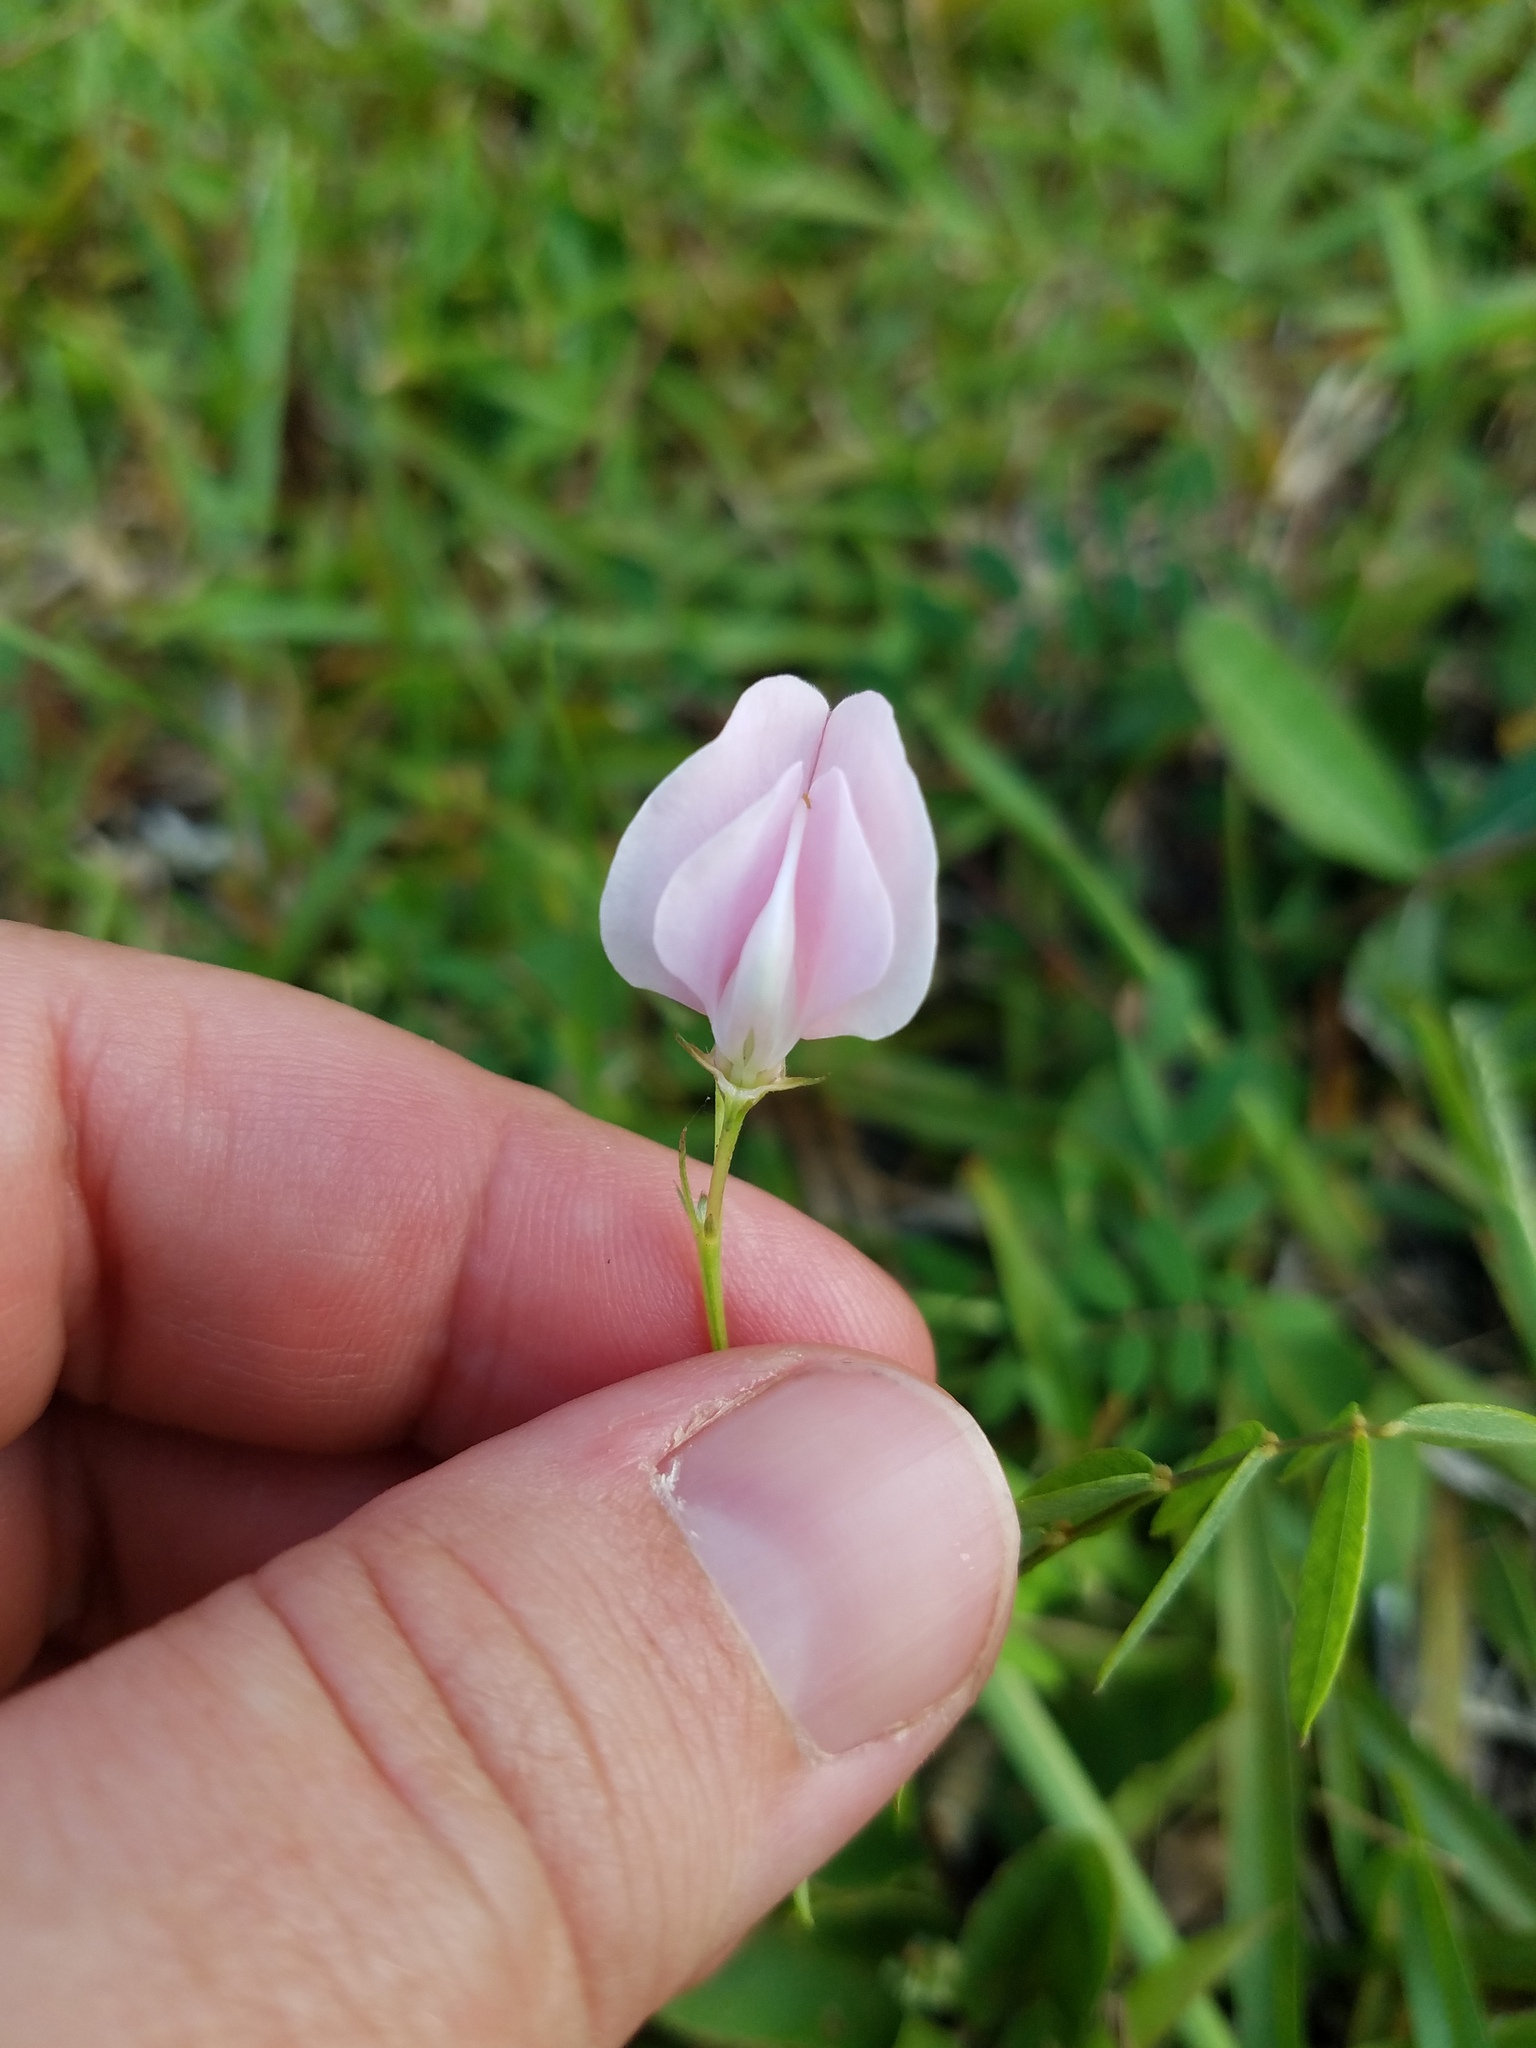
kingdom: Plantae
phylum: Tracheophyta
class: Magnoliopsida
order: Fabales
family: Fabaceae
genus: Tephrosia
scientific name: Tephrosia hispidula
